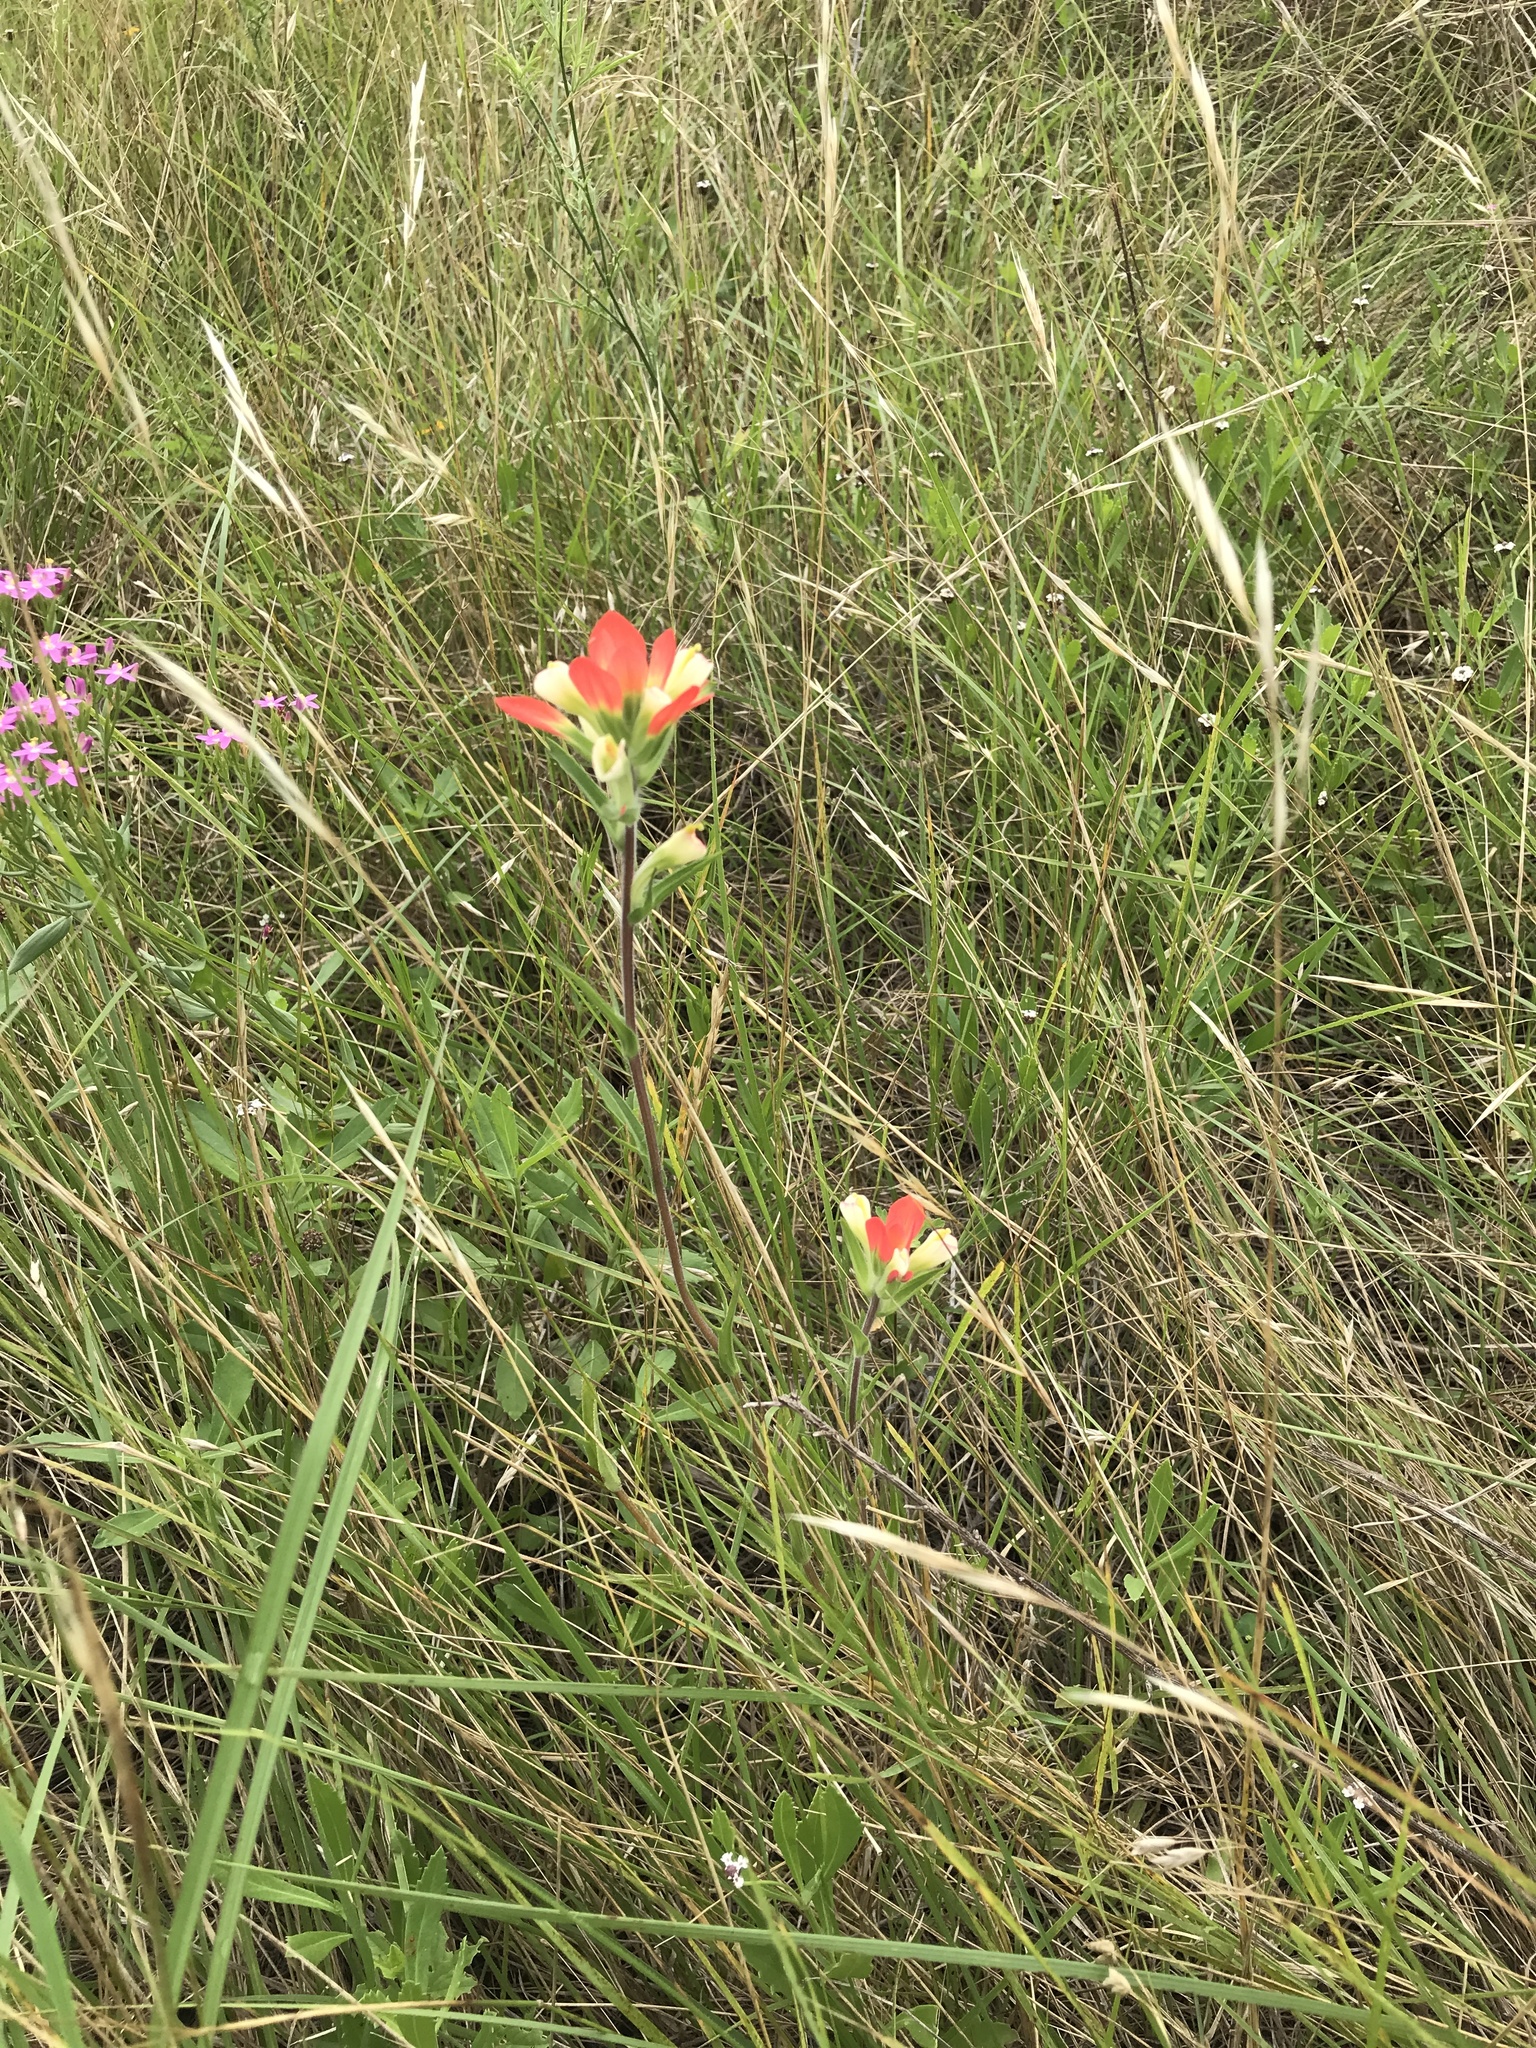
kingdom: Plantae
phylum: Tracheophyta
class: Magnoliopsida
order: Lamiales
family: Orobanchaceae
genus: Castilleja
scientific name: Castilleja indivisa
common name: Texas paintbrush
